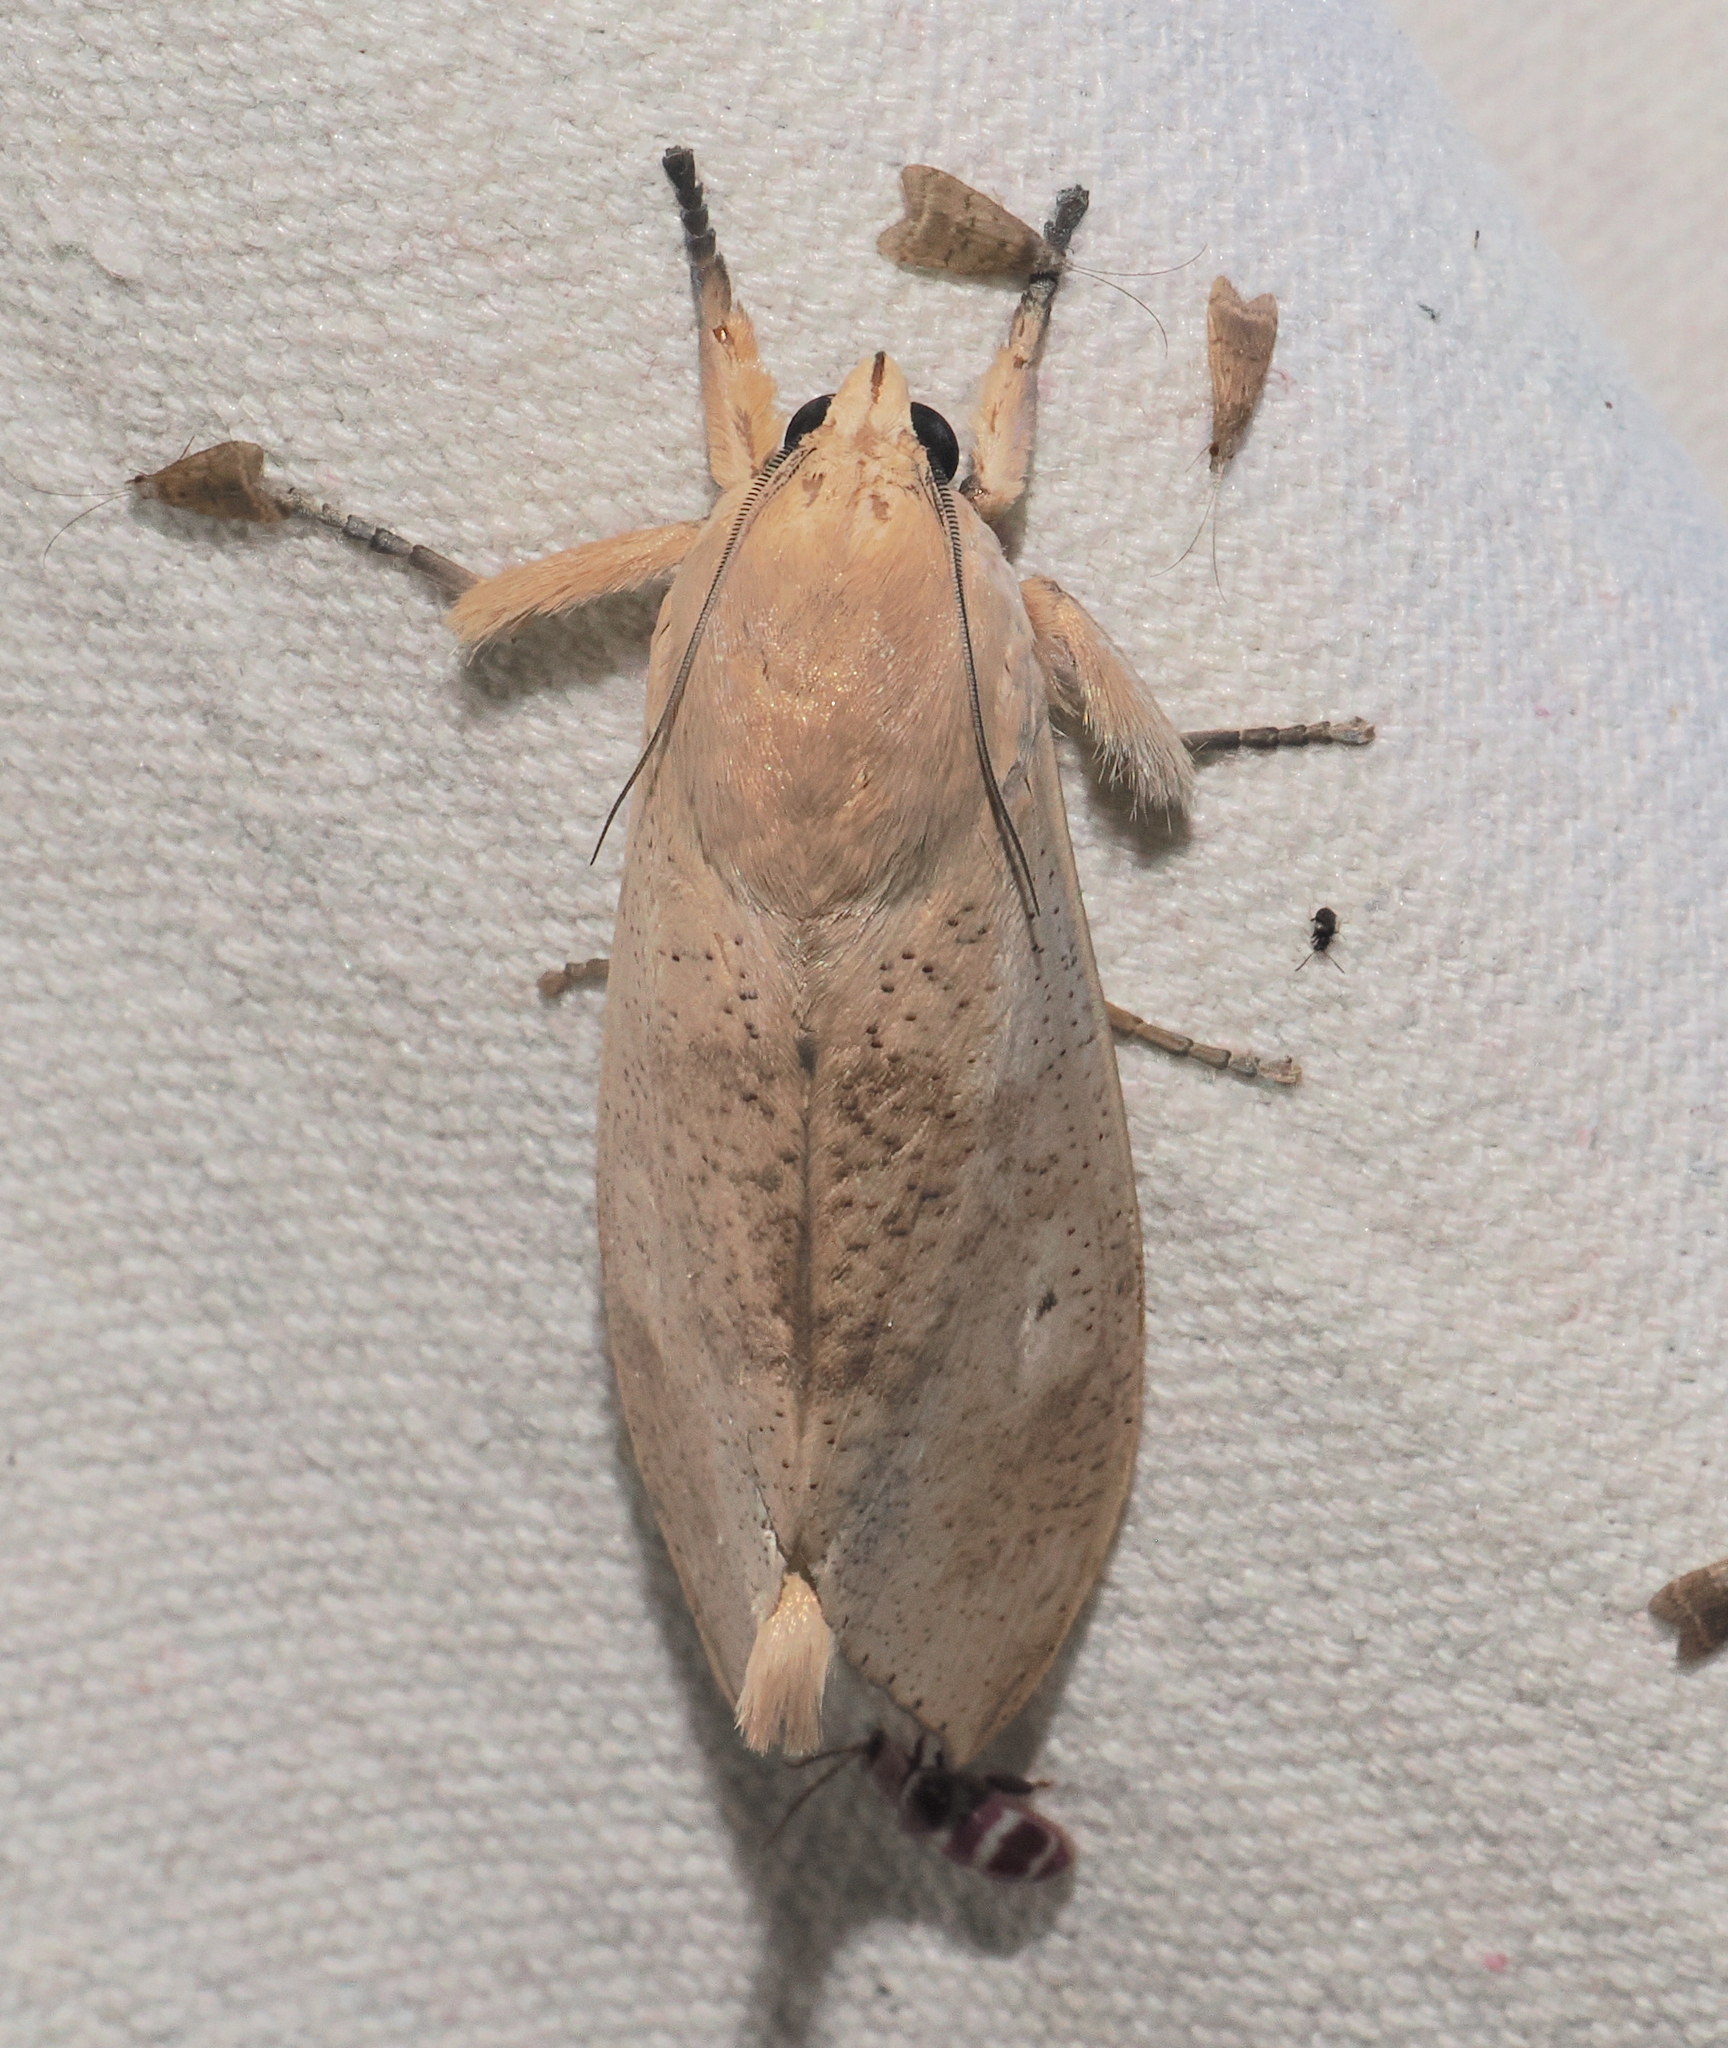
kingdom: Animalia
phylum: Arthropoda
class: Insecta
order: Lepidoptera
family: Crambidae
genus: Myelobia
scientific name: Myelobia smerintha
